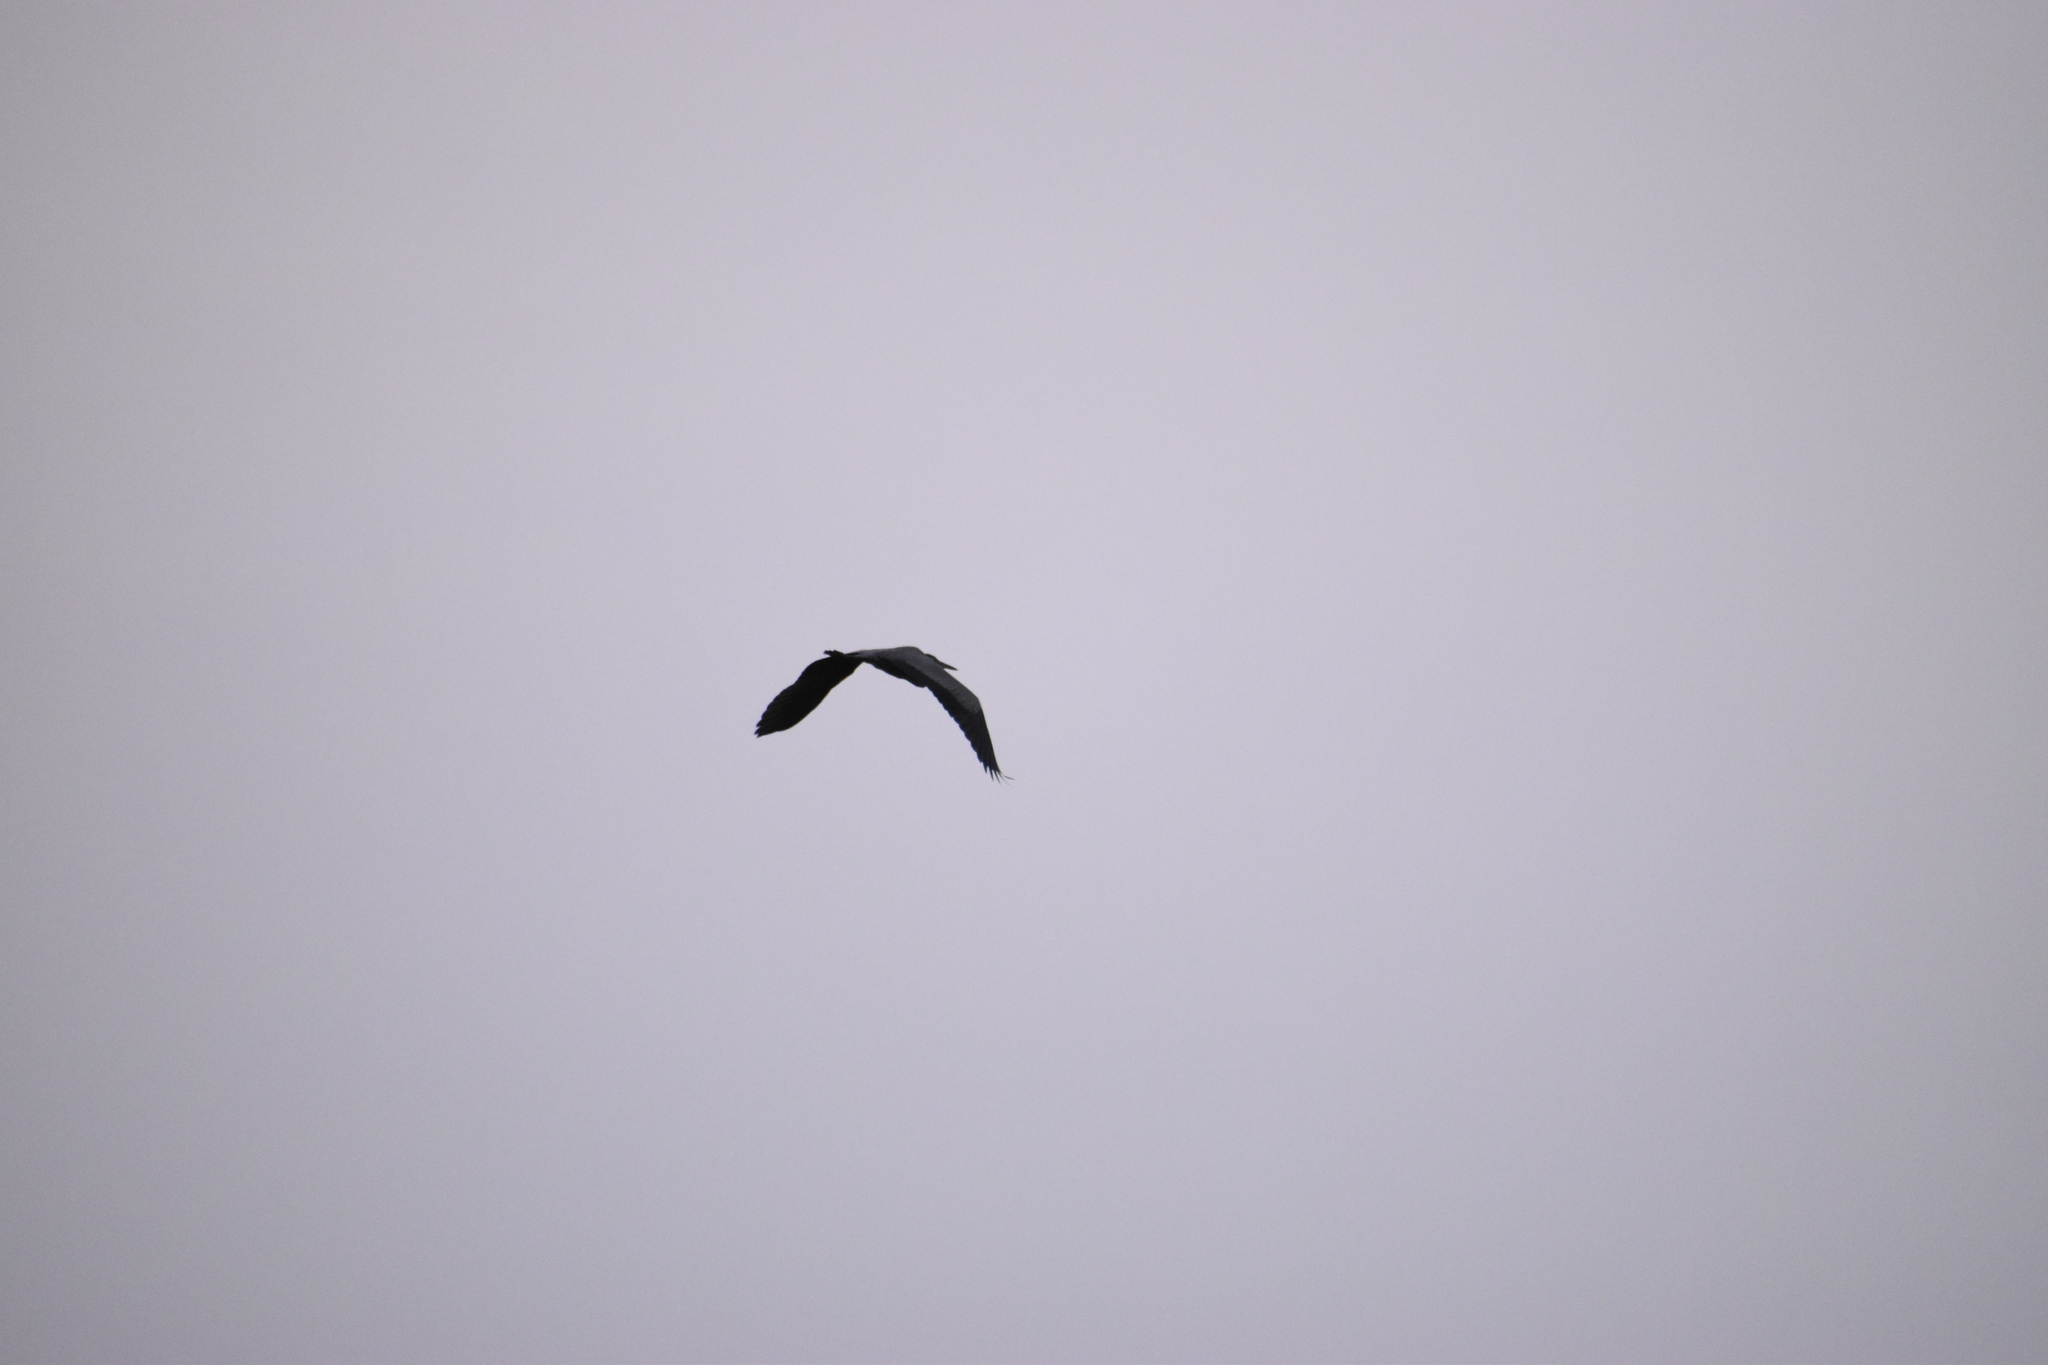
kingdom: Animalia
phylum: Chordata
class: Aves
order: Pelecaniformes
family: Ardeidae
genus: Ardea
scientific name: Ardea herodias
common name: Great blue heron
